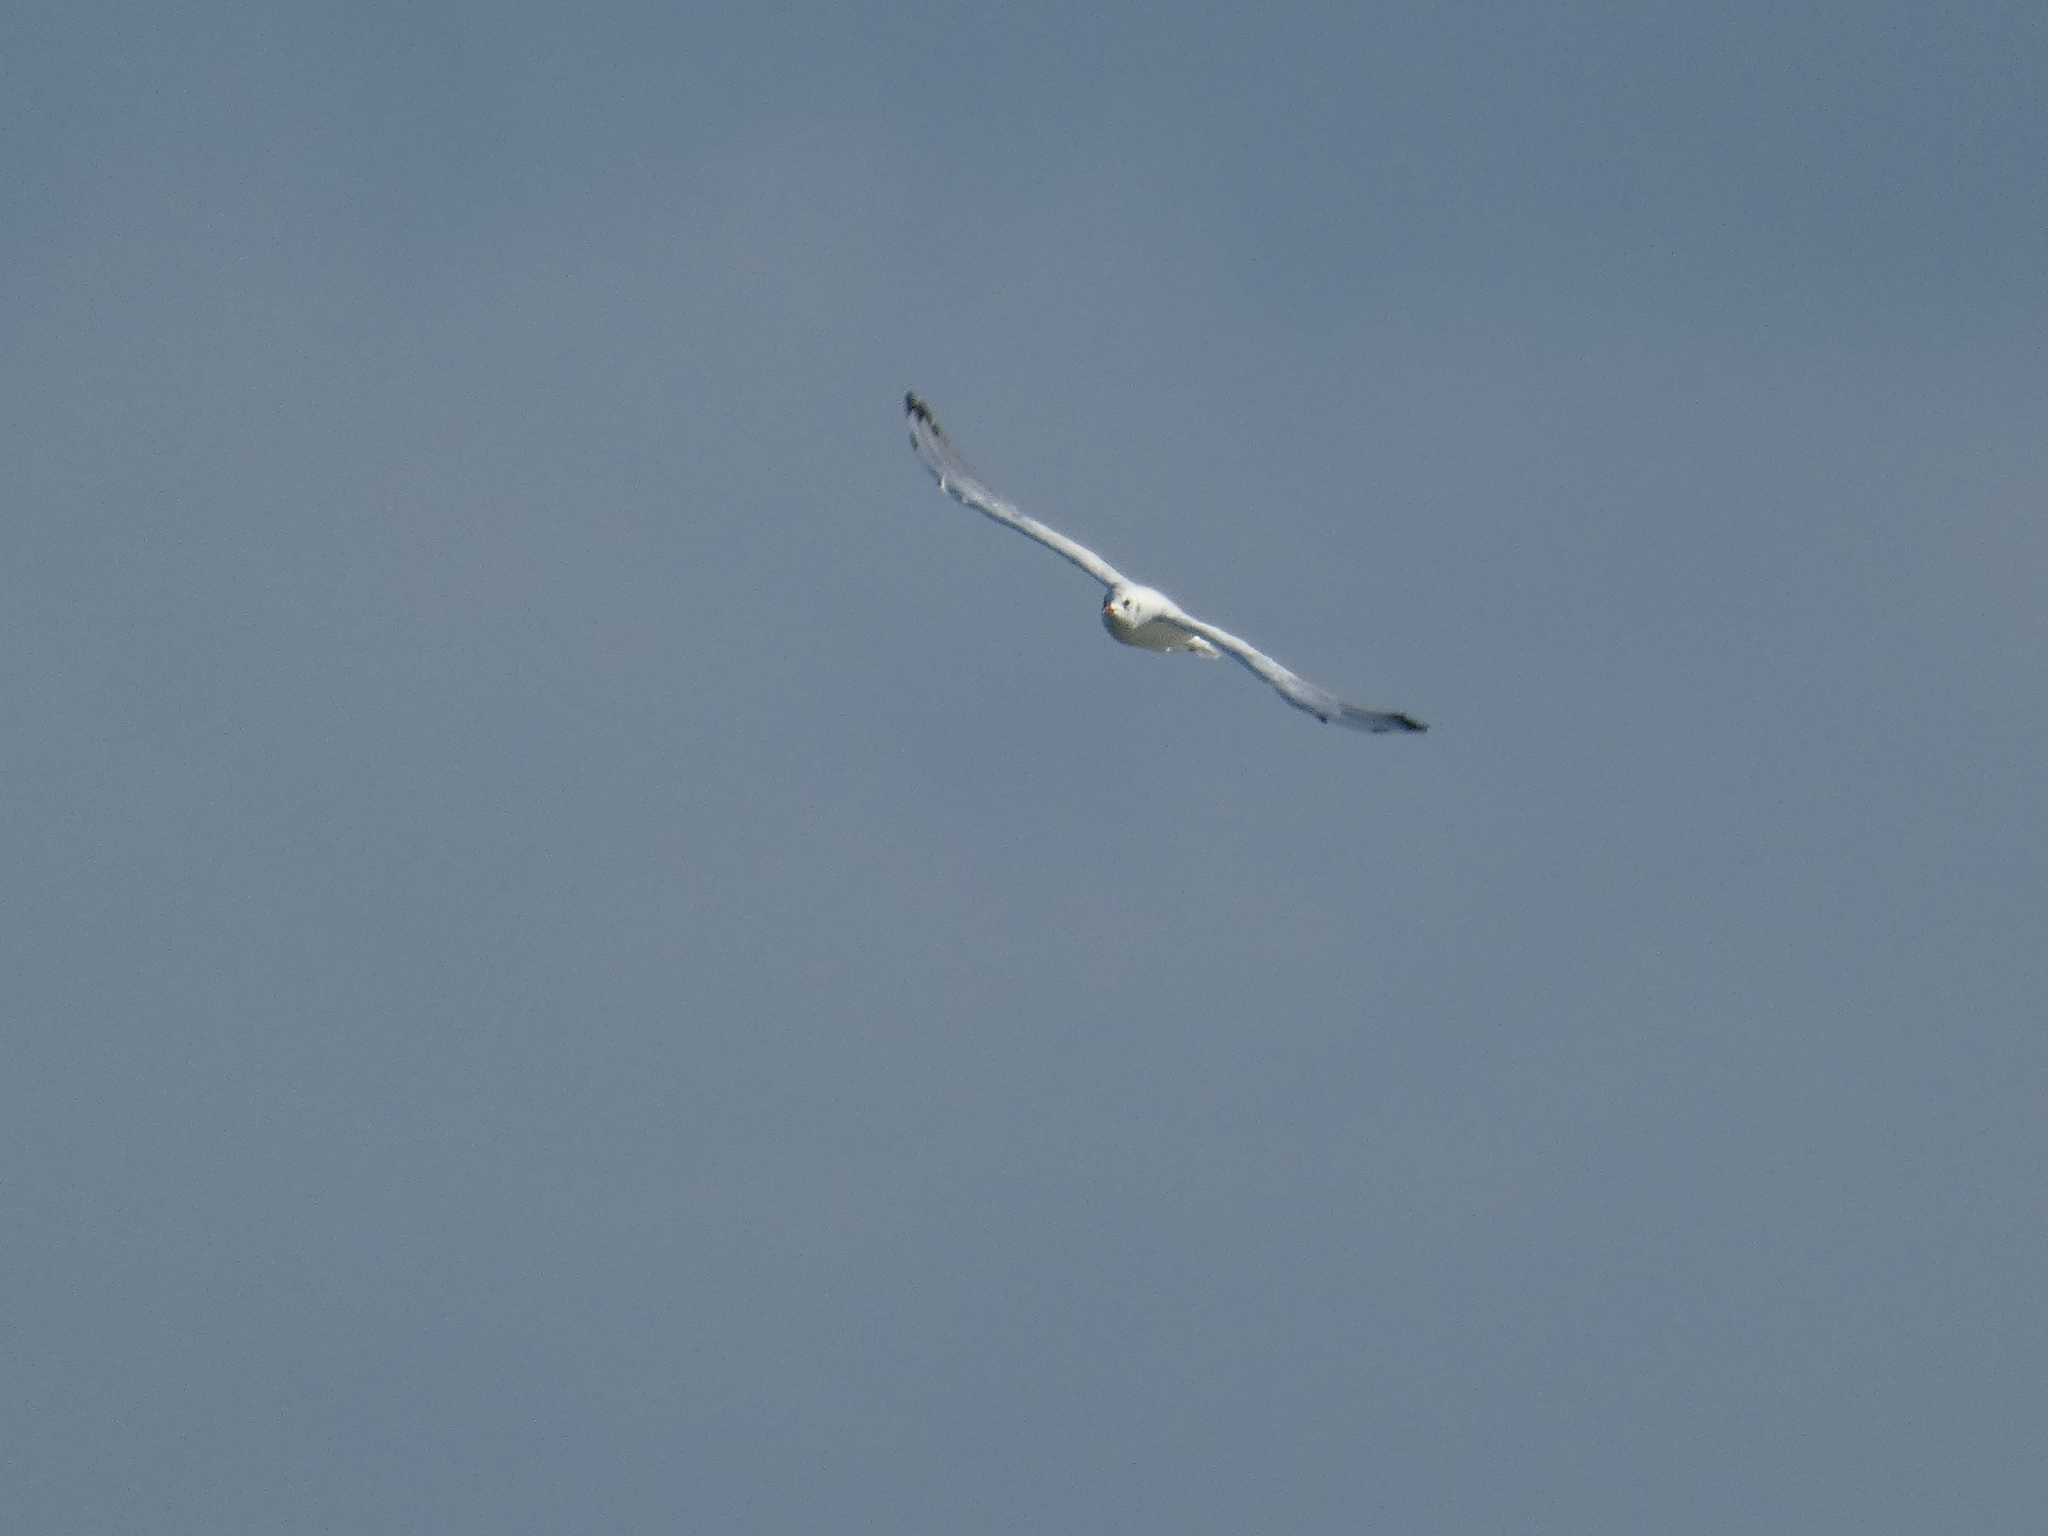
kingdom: Animalia
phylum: Chordata
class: Aves
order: Charadriiformes
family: Laridae
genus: Chroicocephalus
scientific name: Chroicocephalus ridibundus
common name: Black-headed gull
